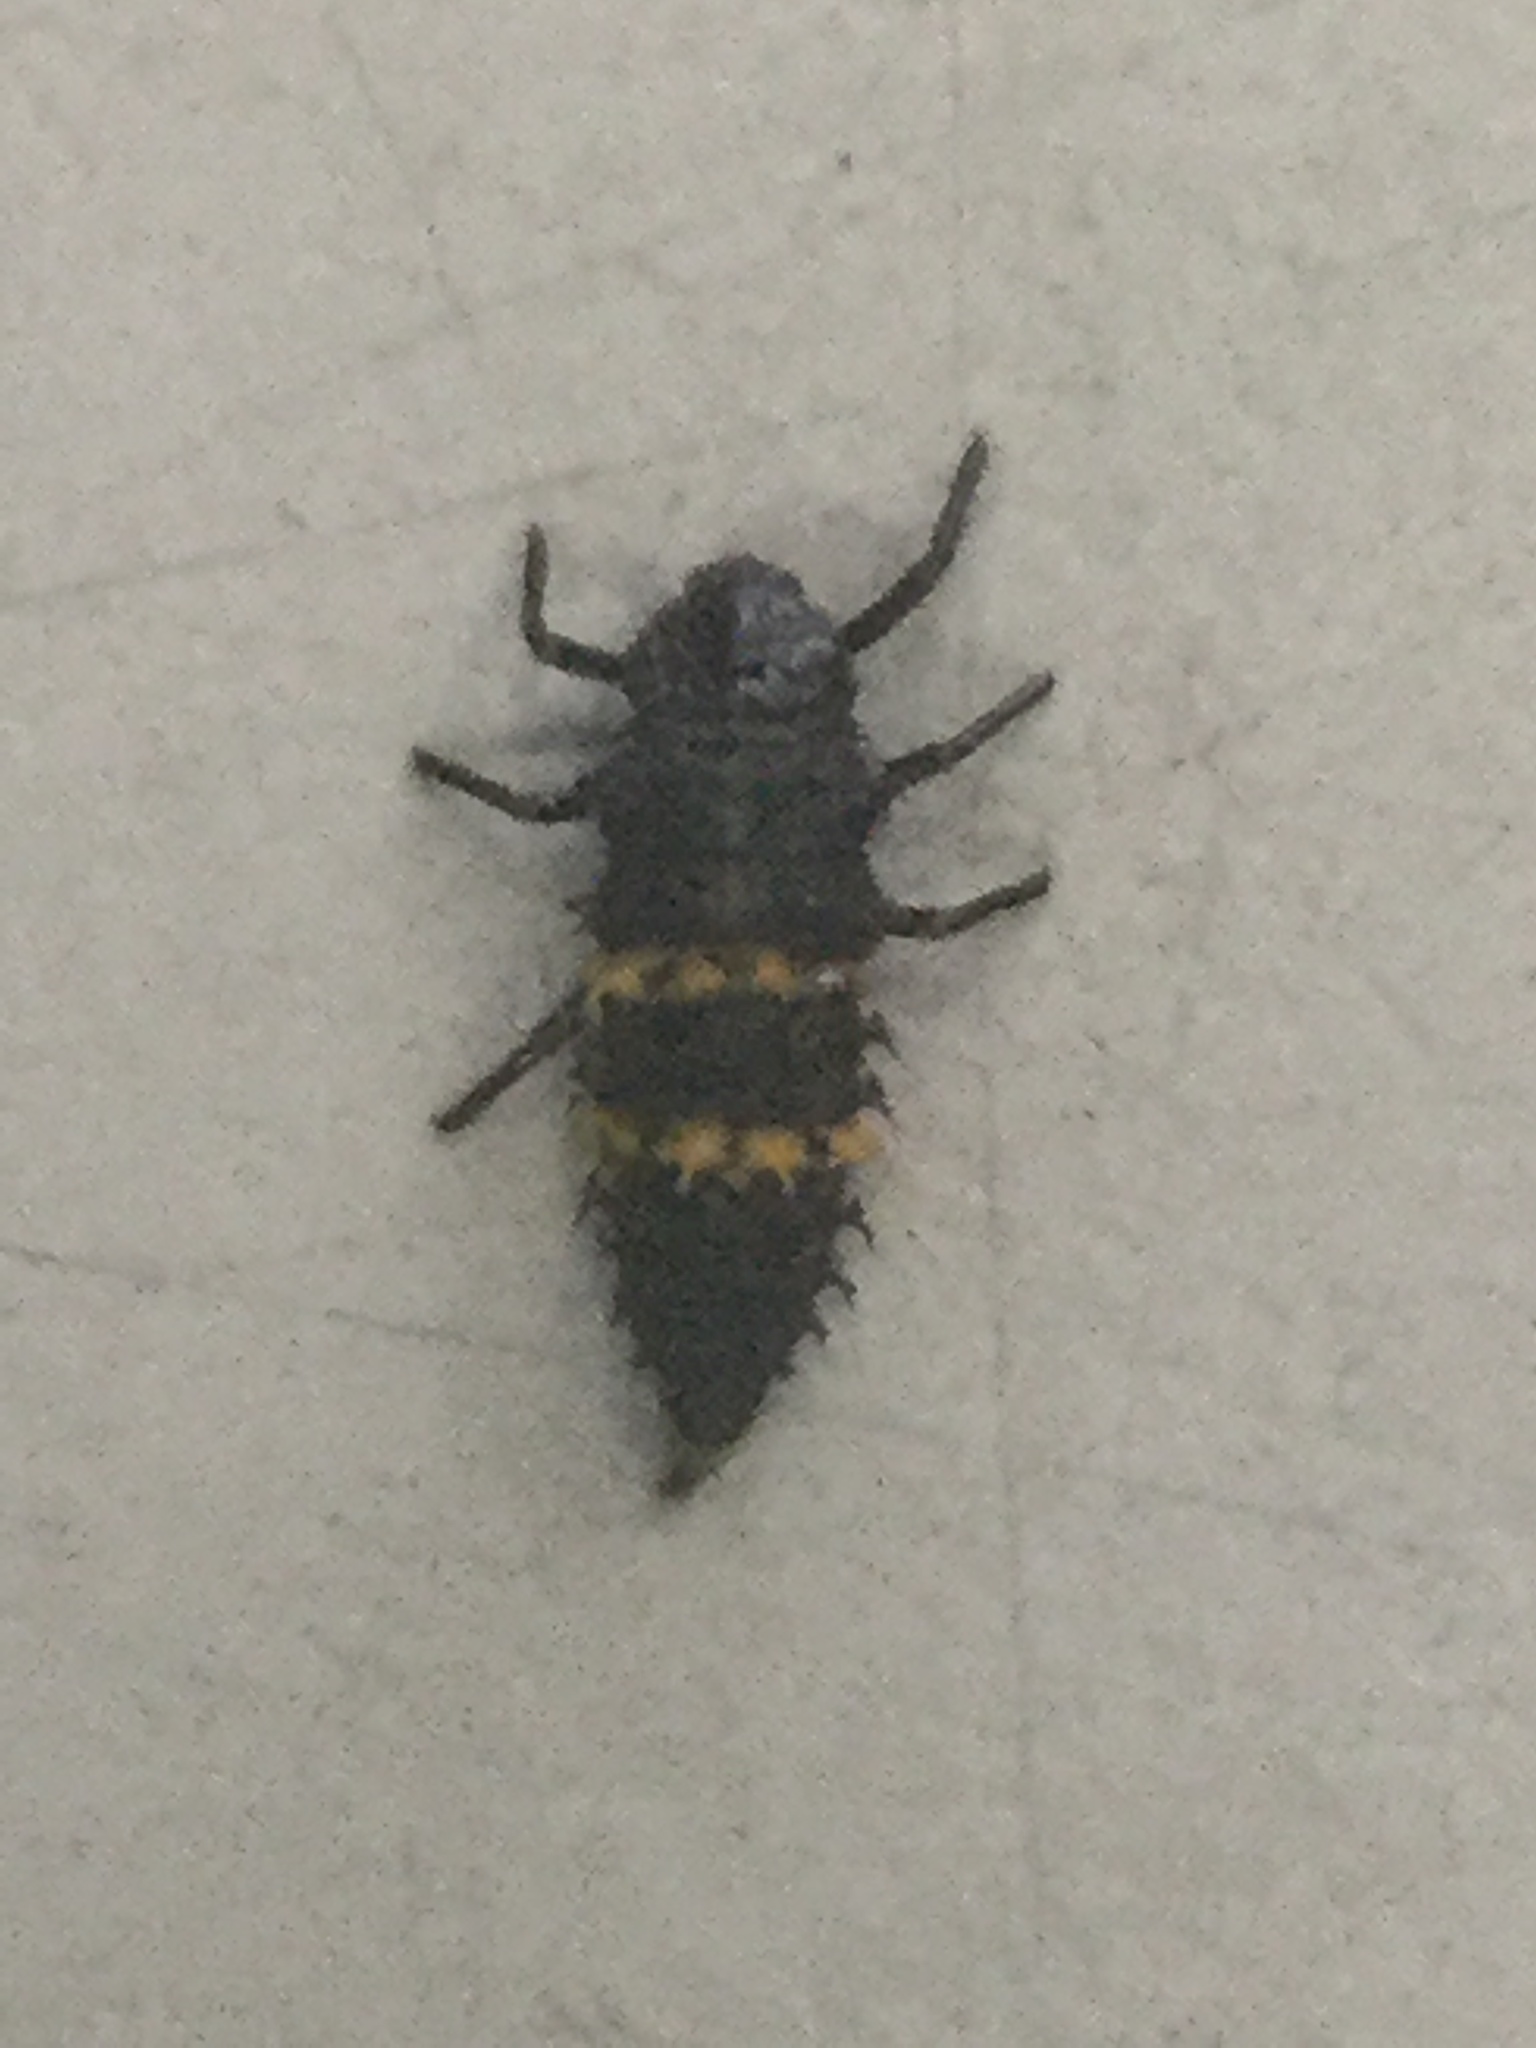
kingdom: Animalia
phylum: Arthropoda
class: Insecta
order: Coleoptera
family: Coccinellidae
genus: Harmonia
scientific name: Harmonia conformis
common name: Common spotted ladybird beetle
